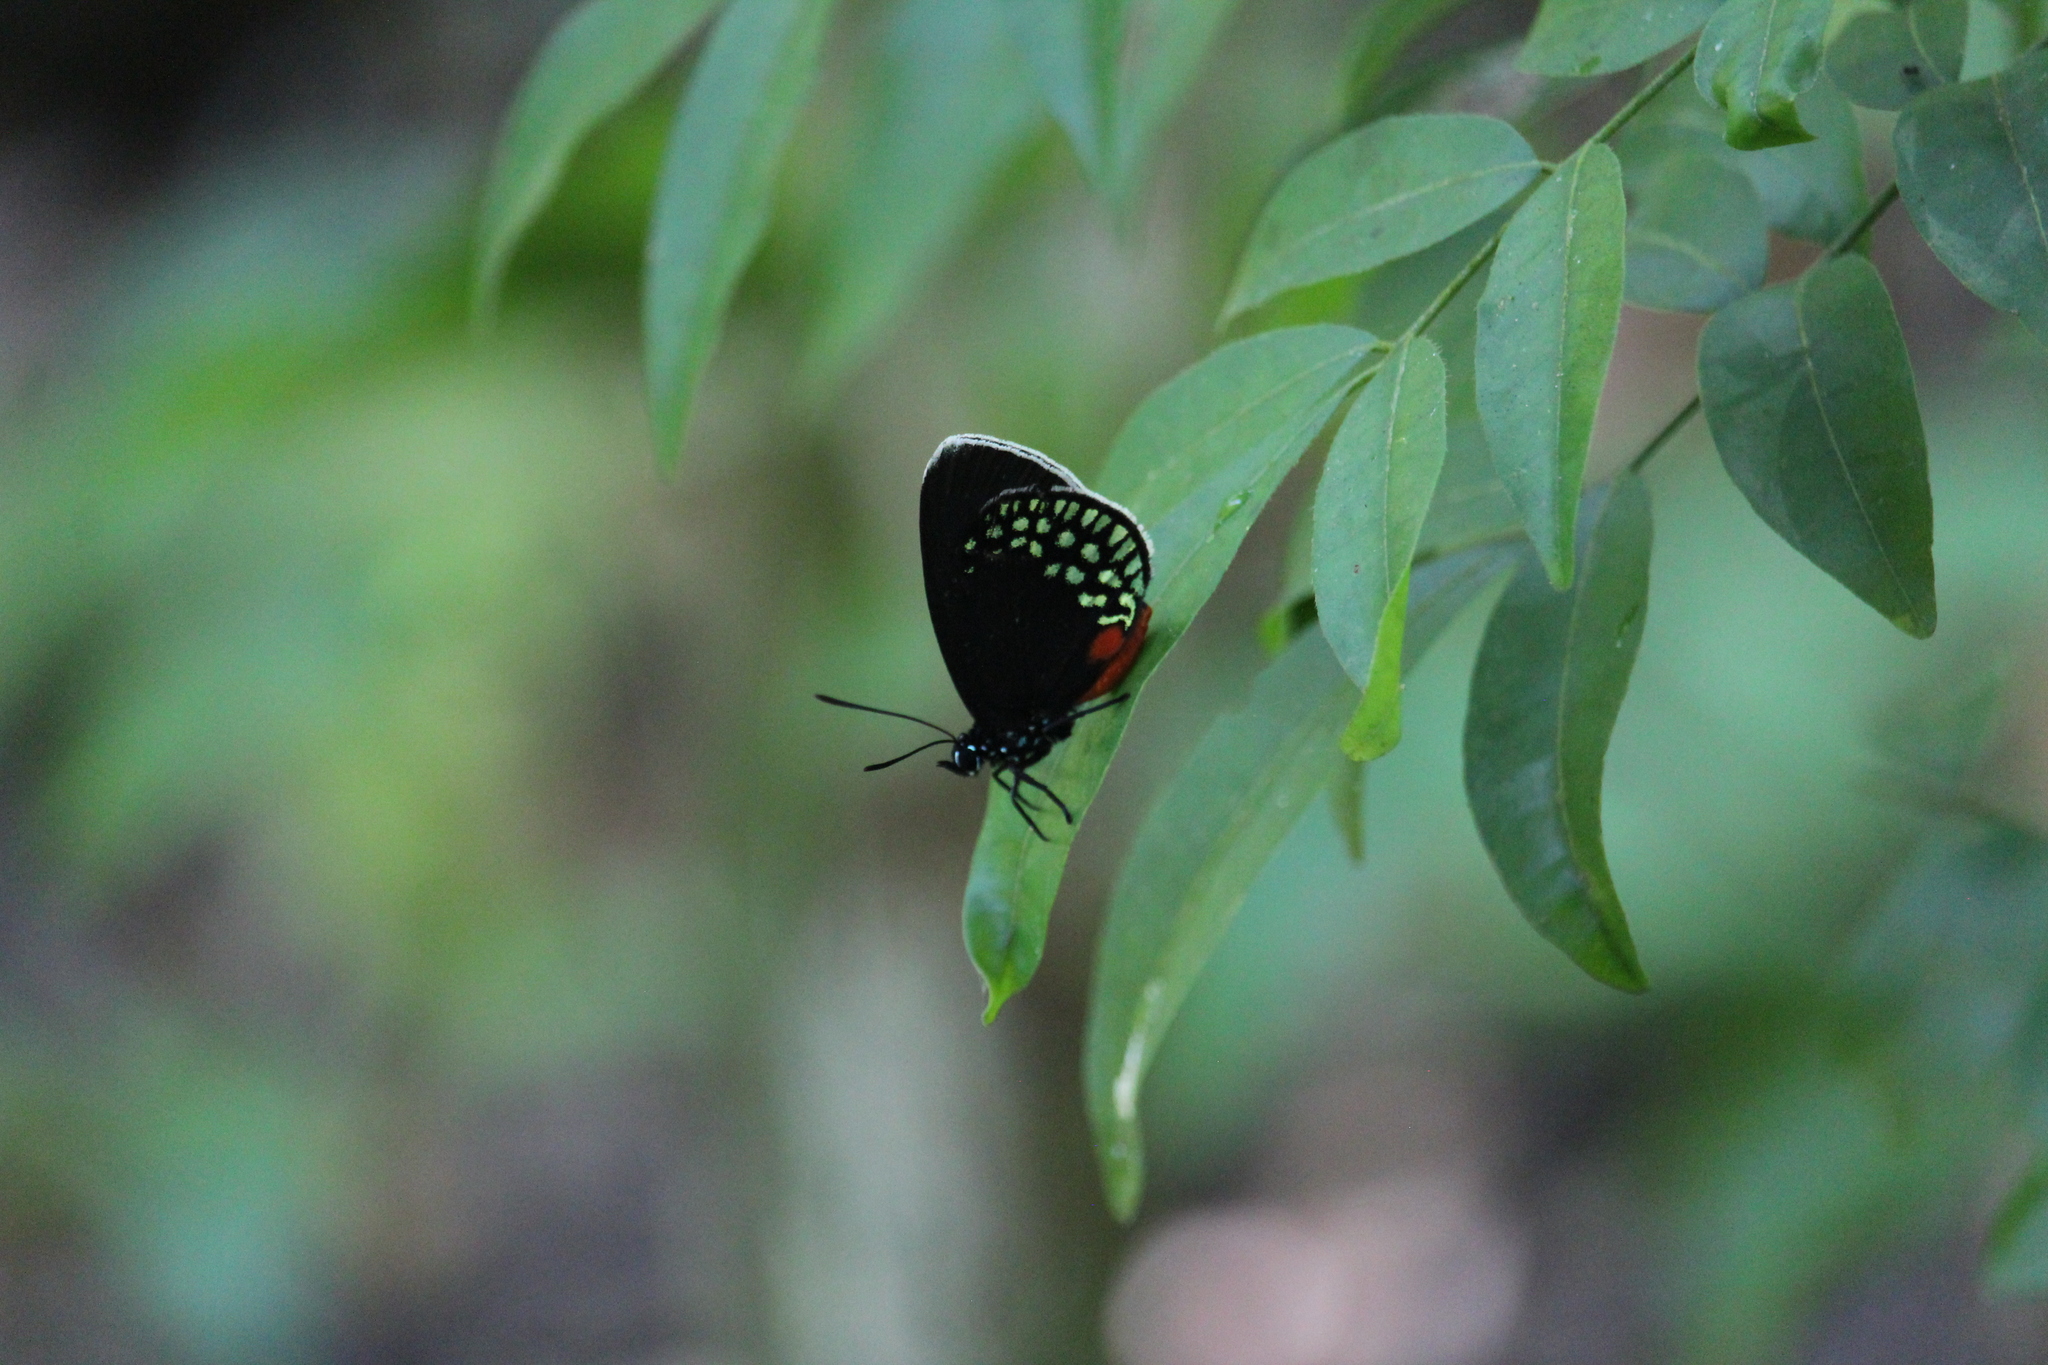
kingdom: Animalia
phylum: Arthropoda
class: Insecta
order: Lepidoptera
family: Lycaenidae
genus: Eumaeus
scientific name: Eumaeus toxea
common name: Mexican cycadian
